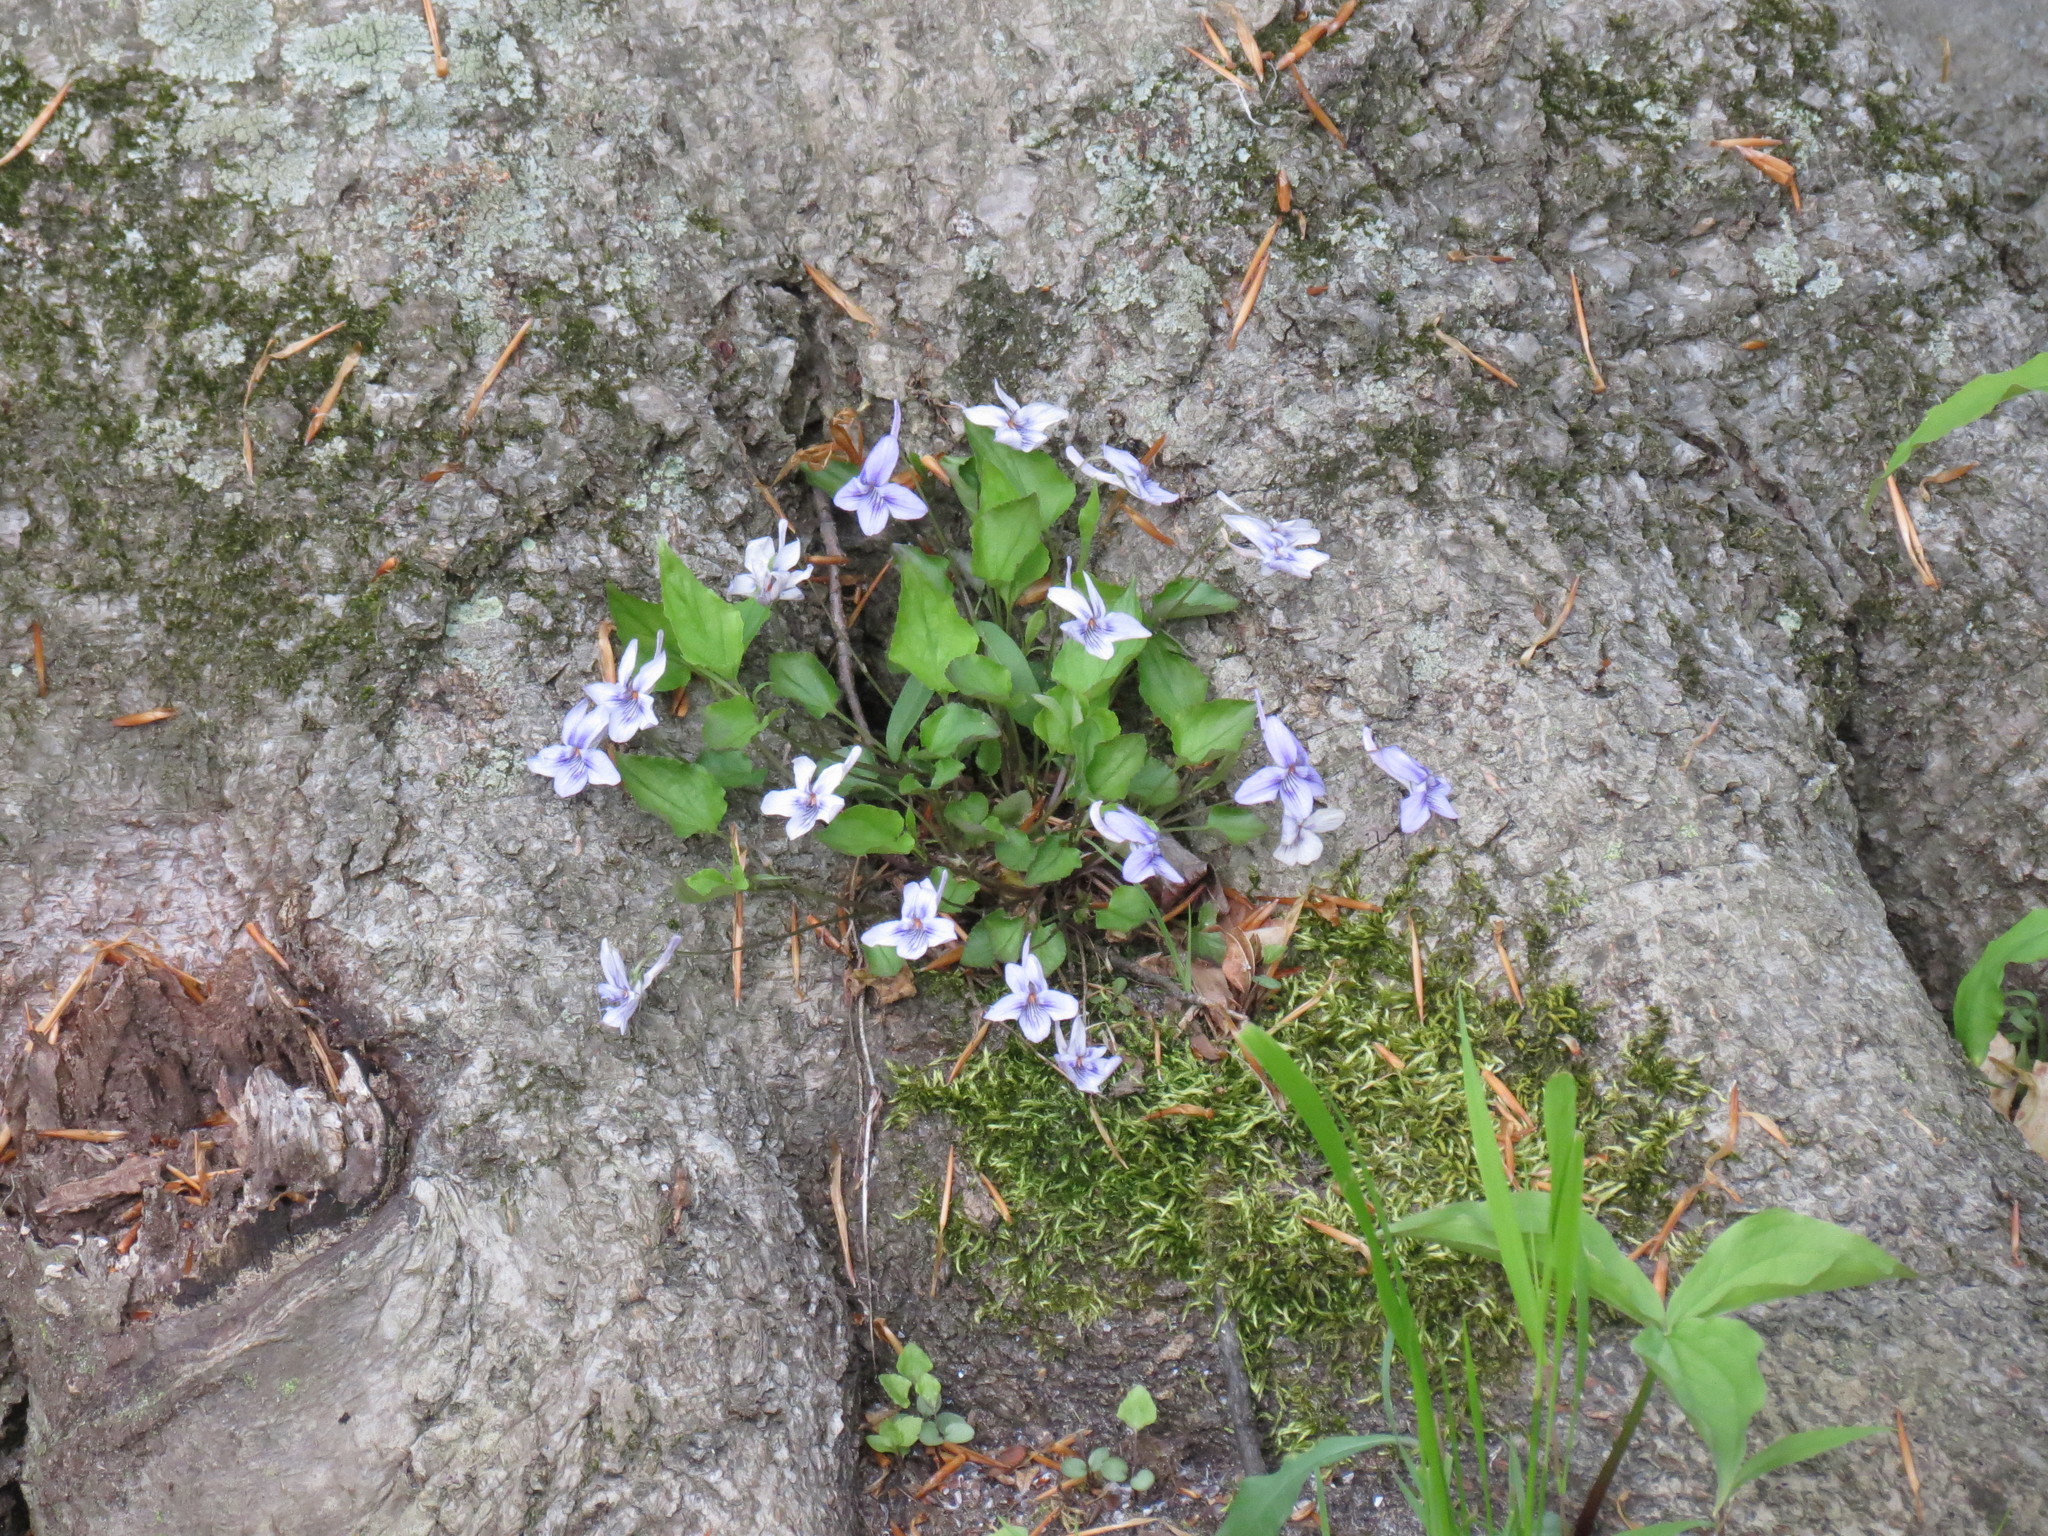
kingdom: Plantae
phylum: Tracheophyta
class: Magnoliopsida
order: Malpighiales
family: Violaceae
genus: Viola
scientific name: Viola rostrata
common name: Long-spur violet
